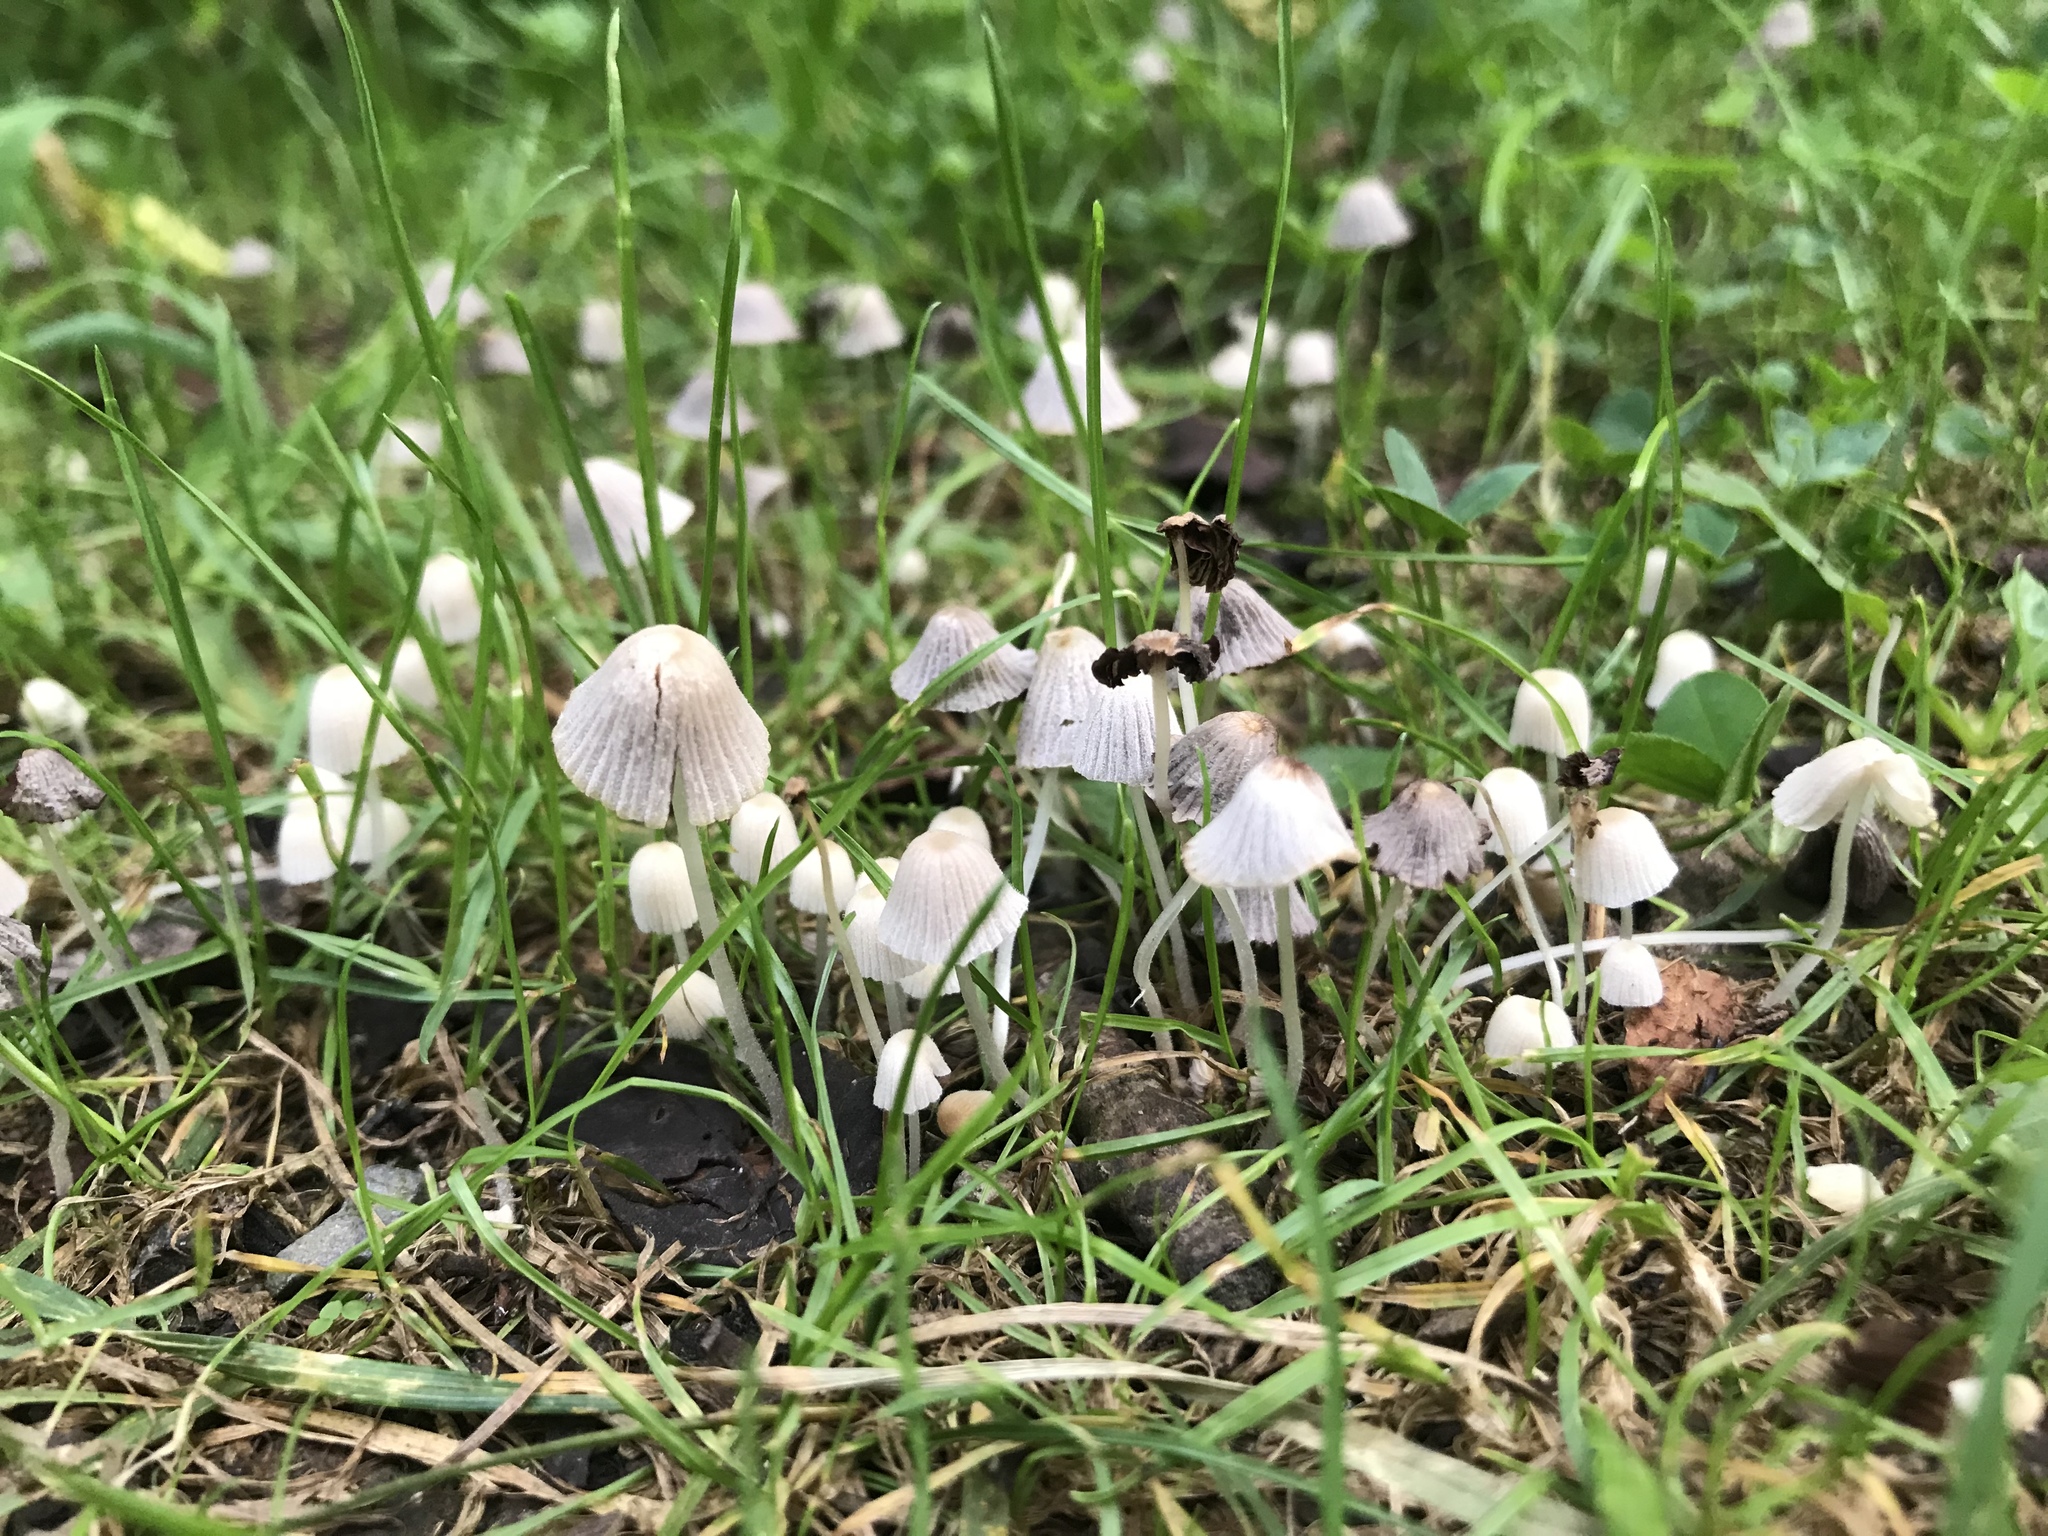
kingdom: Fungi
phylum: Basidiomycota
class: Agaricomycetes
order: Agaricales
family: Psathyrellaceae
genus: Coprinellus
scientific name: Coprinellus disseminatus
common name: Fairies' bonnets
